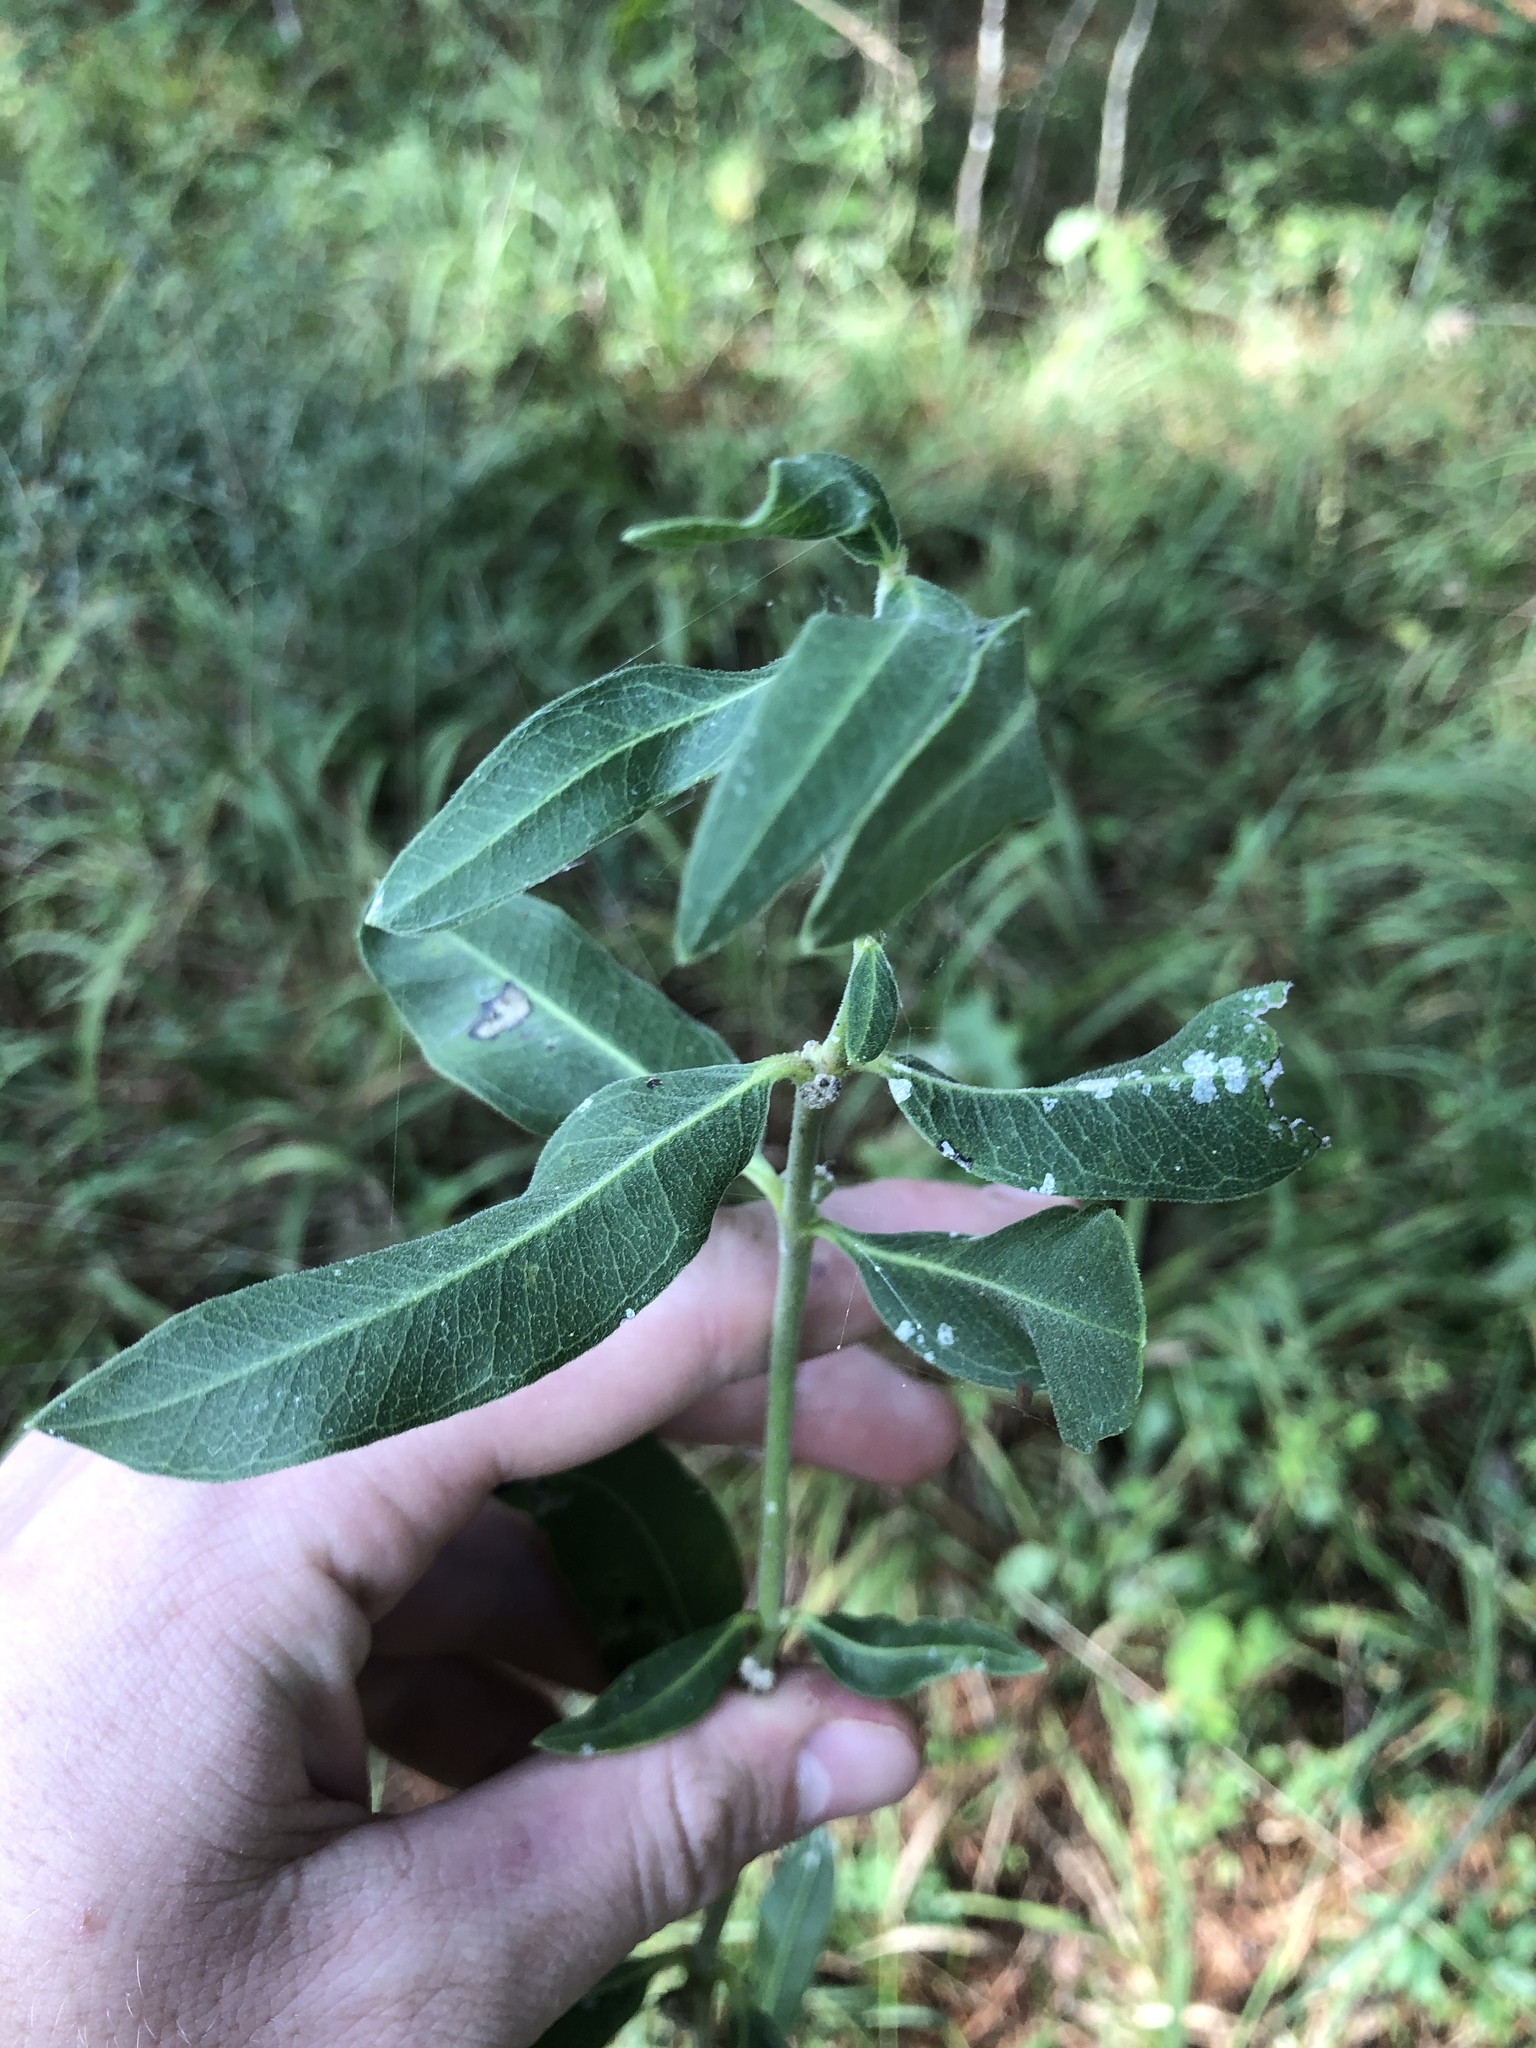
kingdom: Plantae
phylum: Tracheophyta
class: Magnoliopsida
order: Gentianales
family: Apocynaceae
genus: Asclepias
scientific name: Asclepias viridiflora
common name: Green comet milkweed
